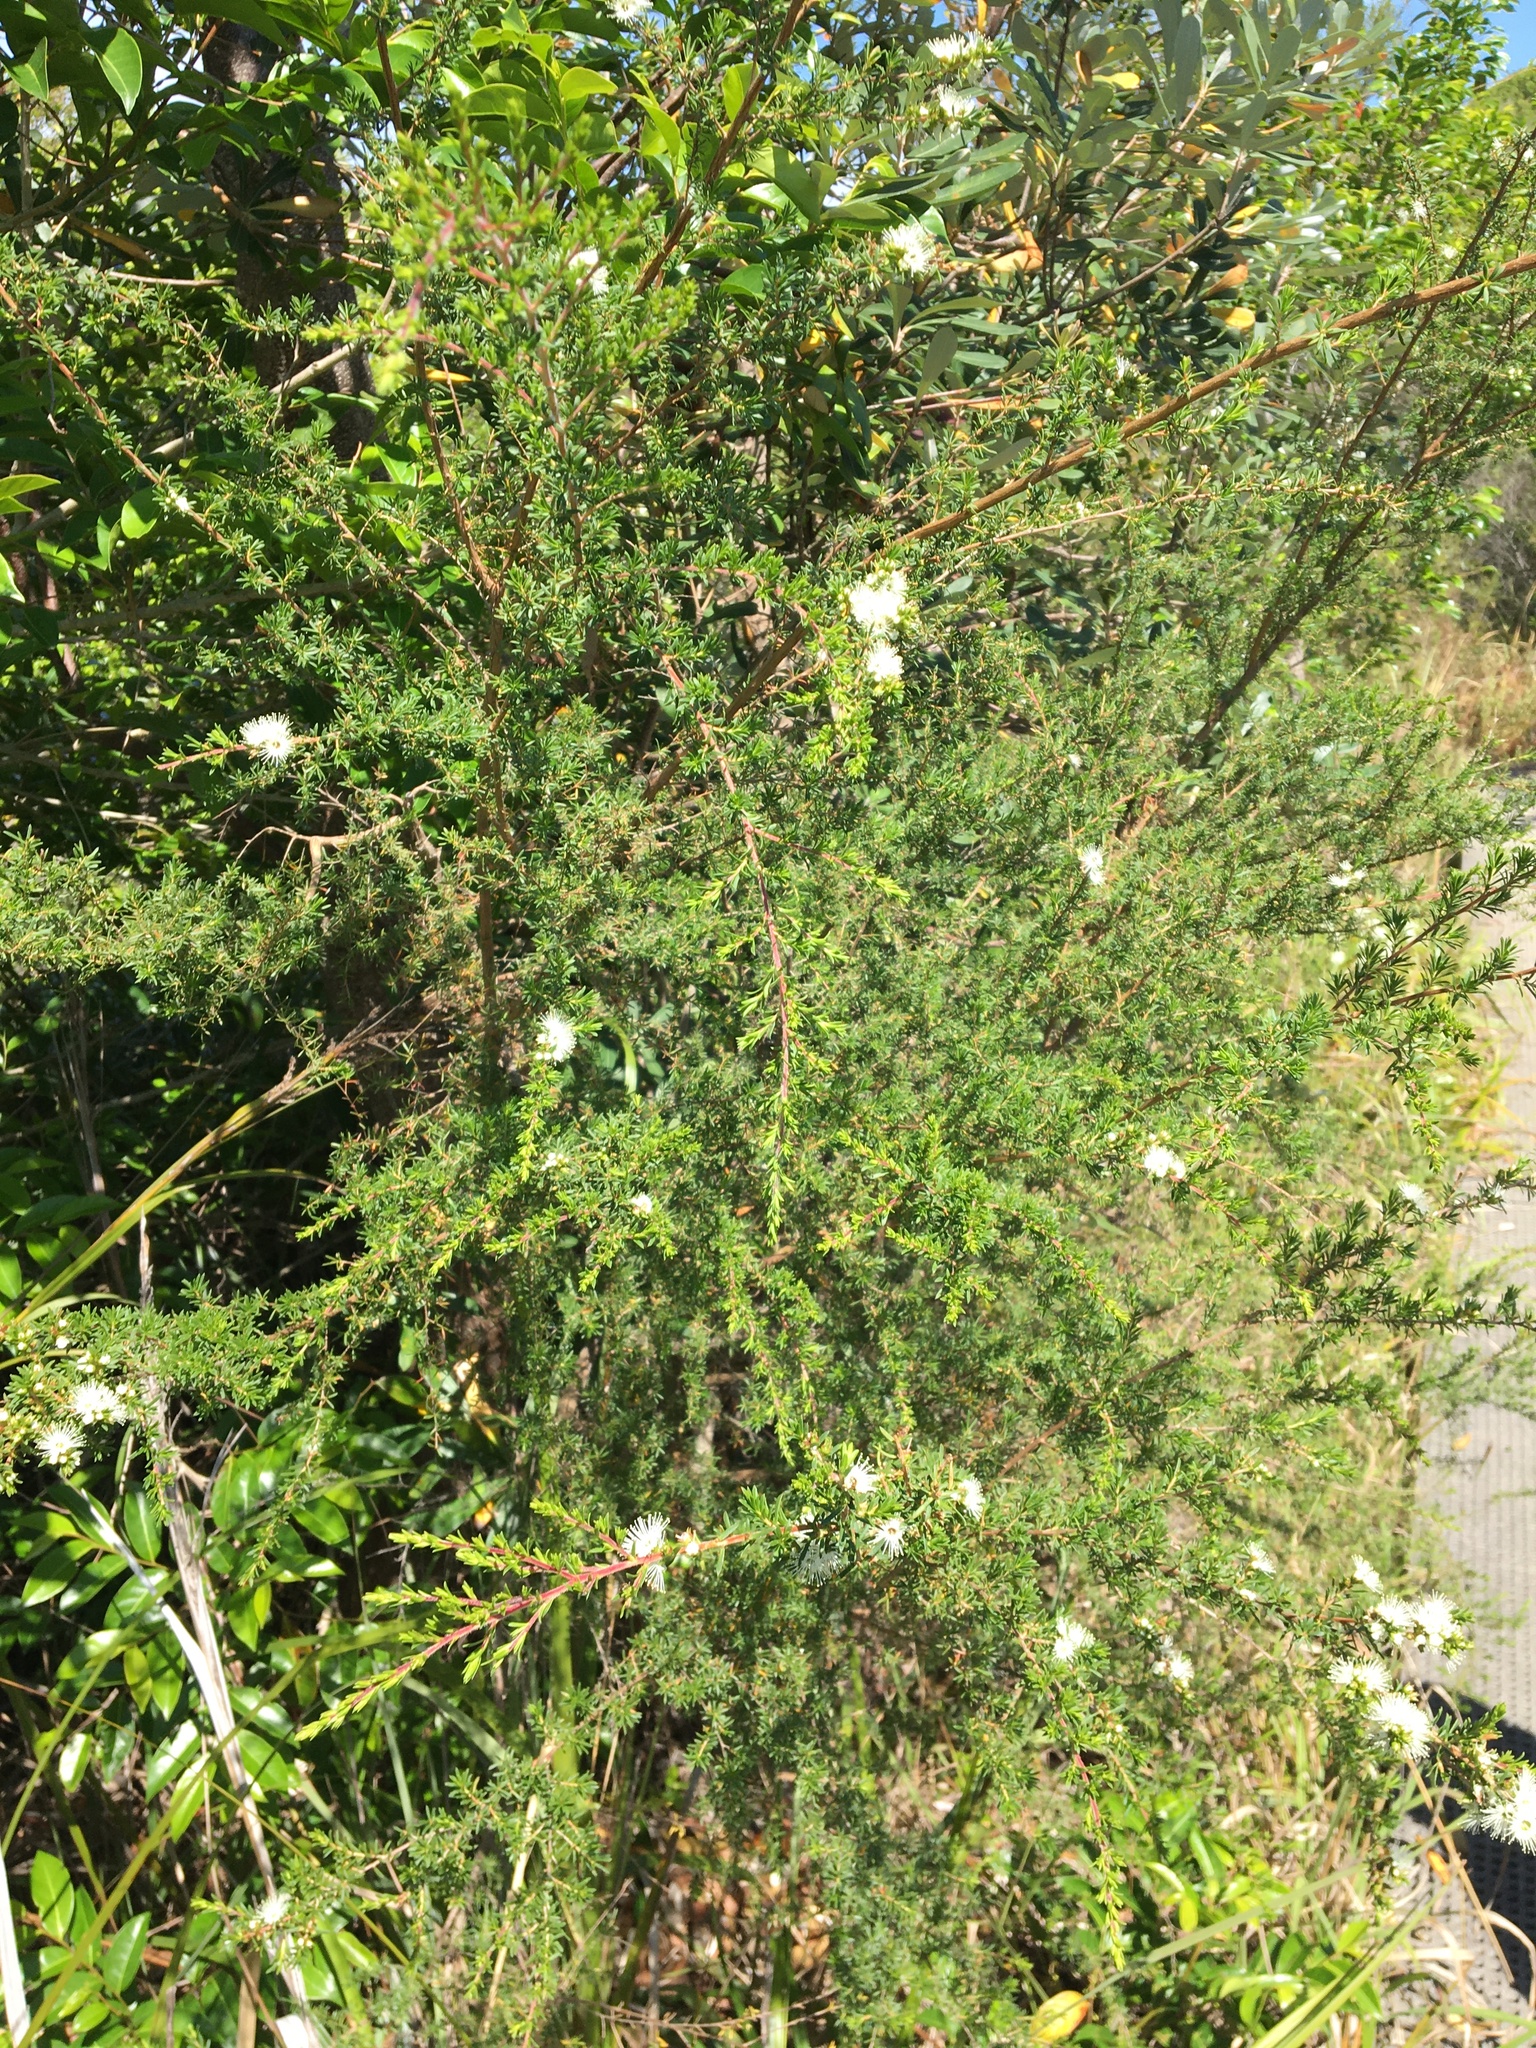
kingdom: Plantae
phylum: Tracheophyta
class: Magnoliopsida
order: Myrtales
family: Myrtaceae
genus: Kunzea
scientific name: Kunzea ambigua
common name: Tickbush
